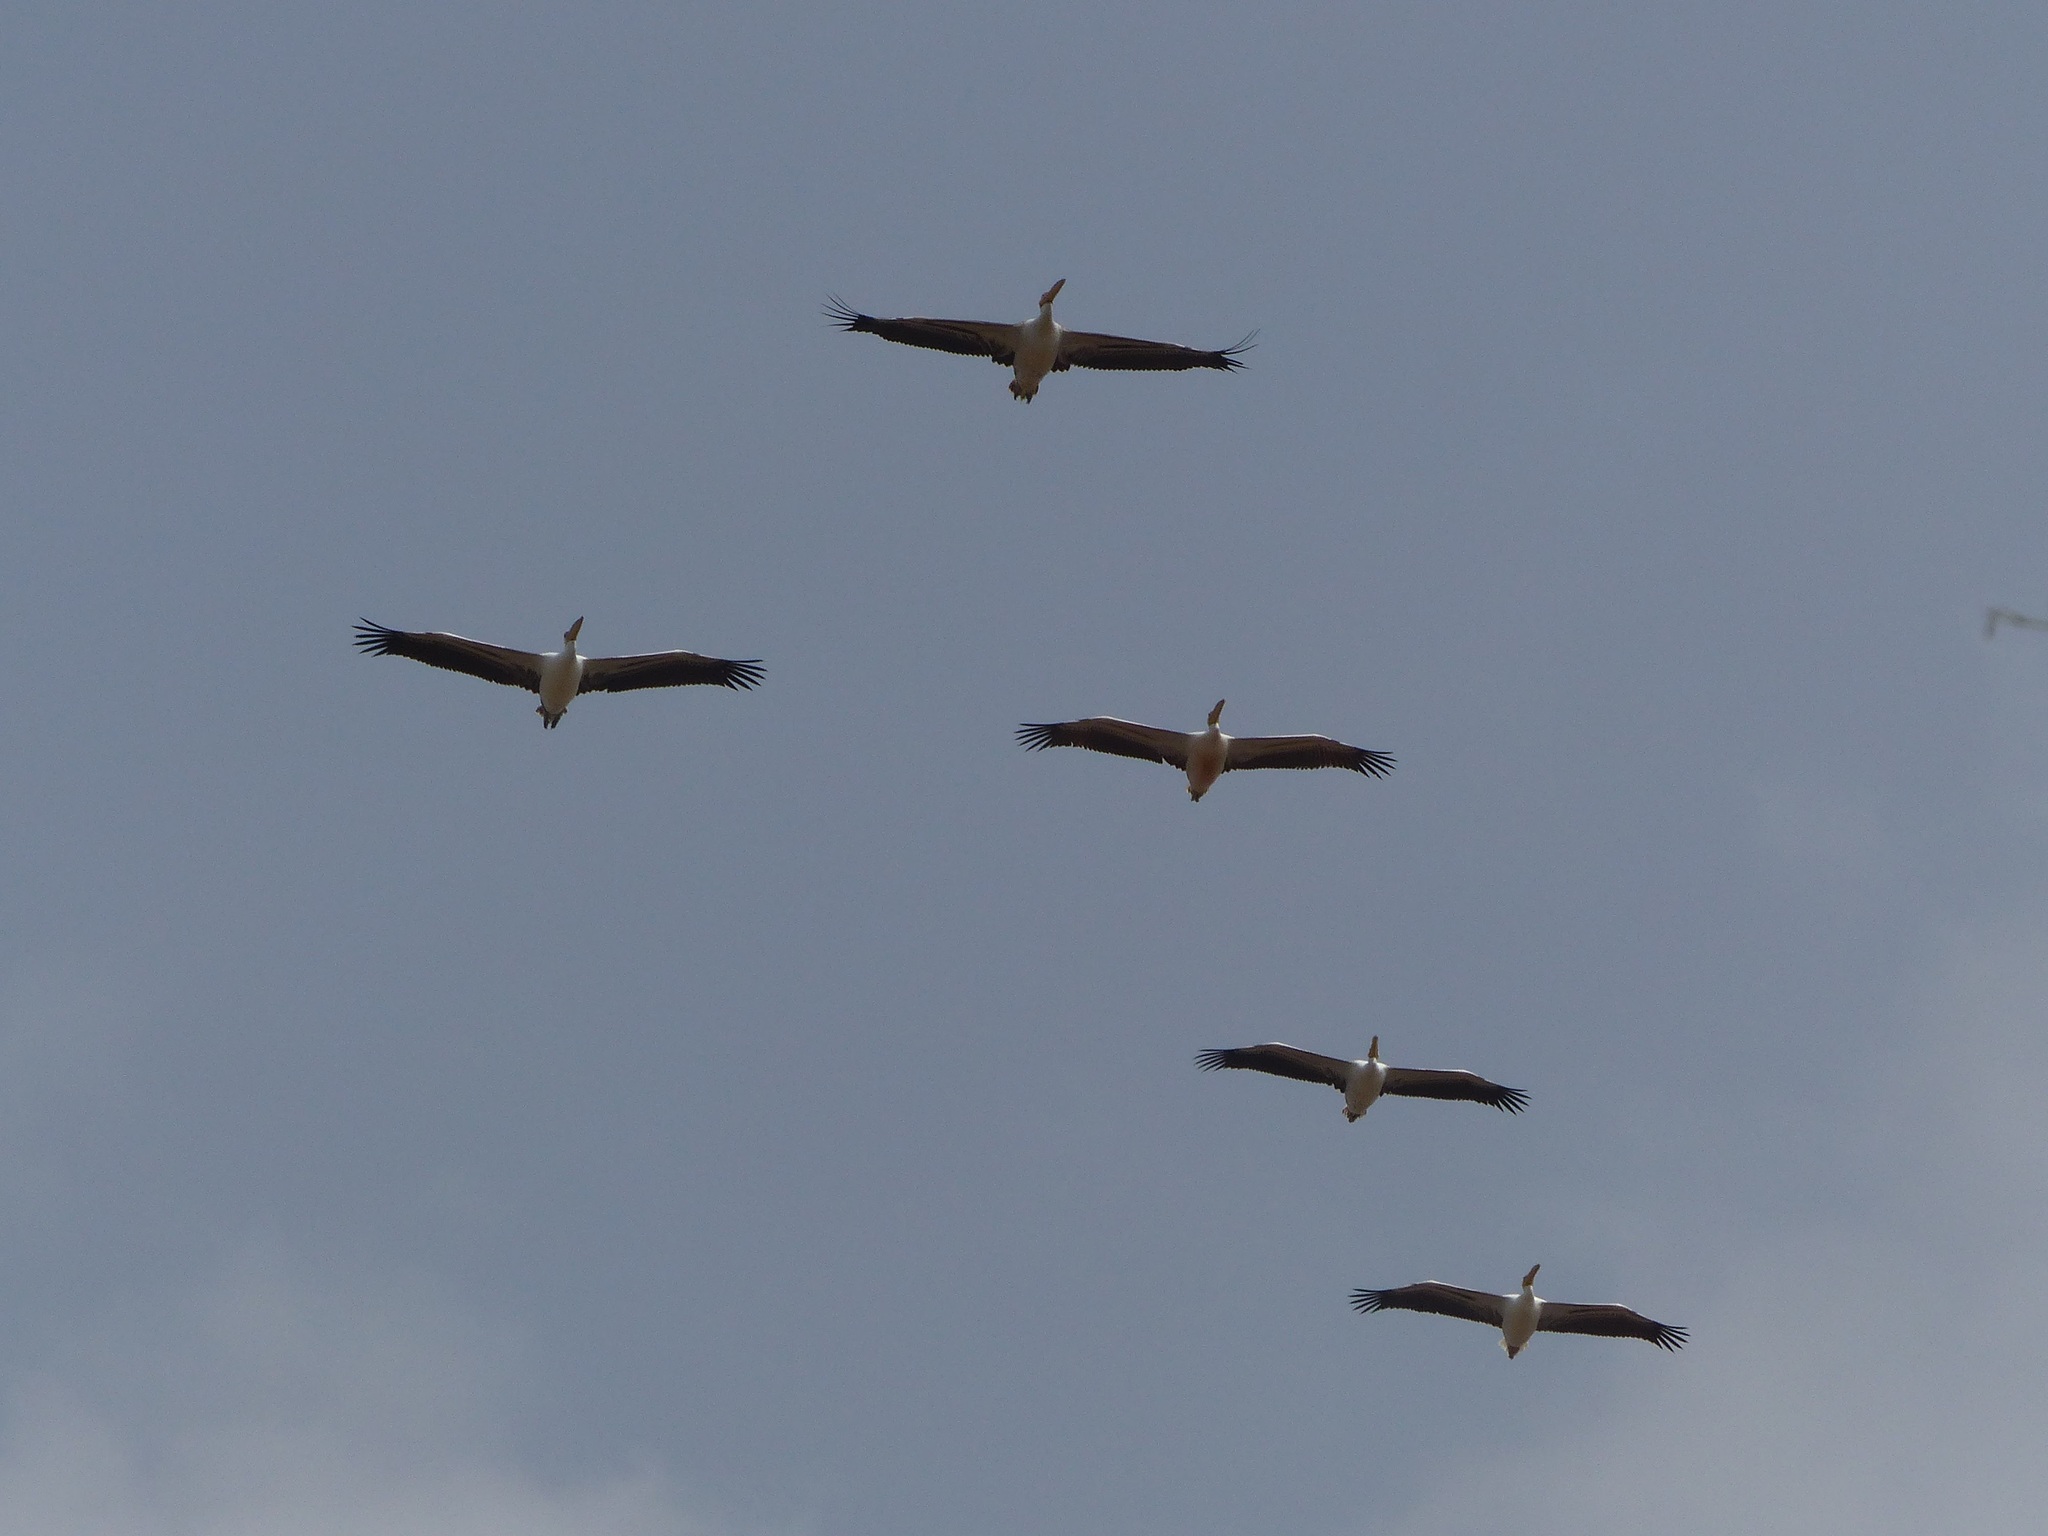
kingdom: Animalia
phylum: Chordata
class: Aves
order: Pelecaniformes
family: Pelecanidae
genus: Pelecanus
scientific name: Pelecanus onocrotalus
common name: Great white pelican
